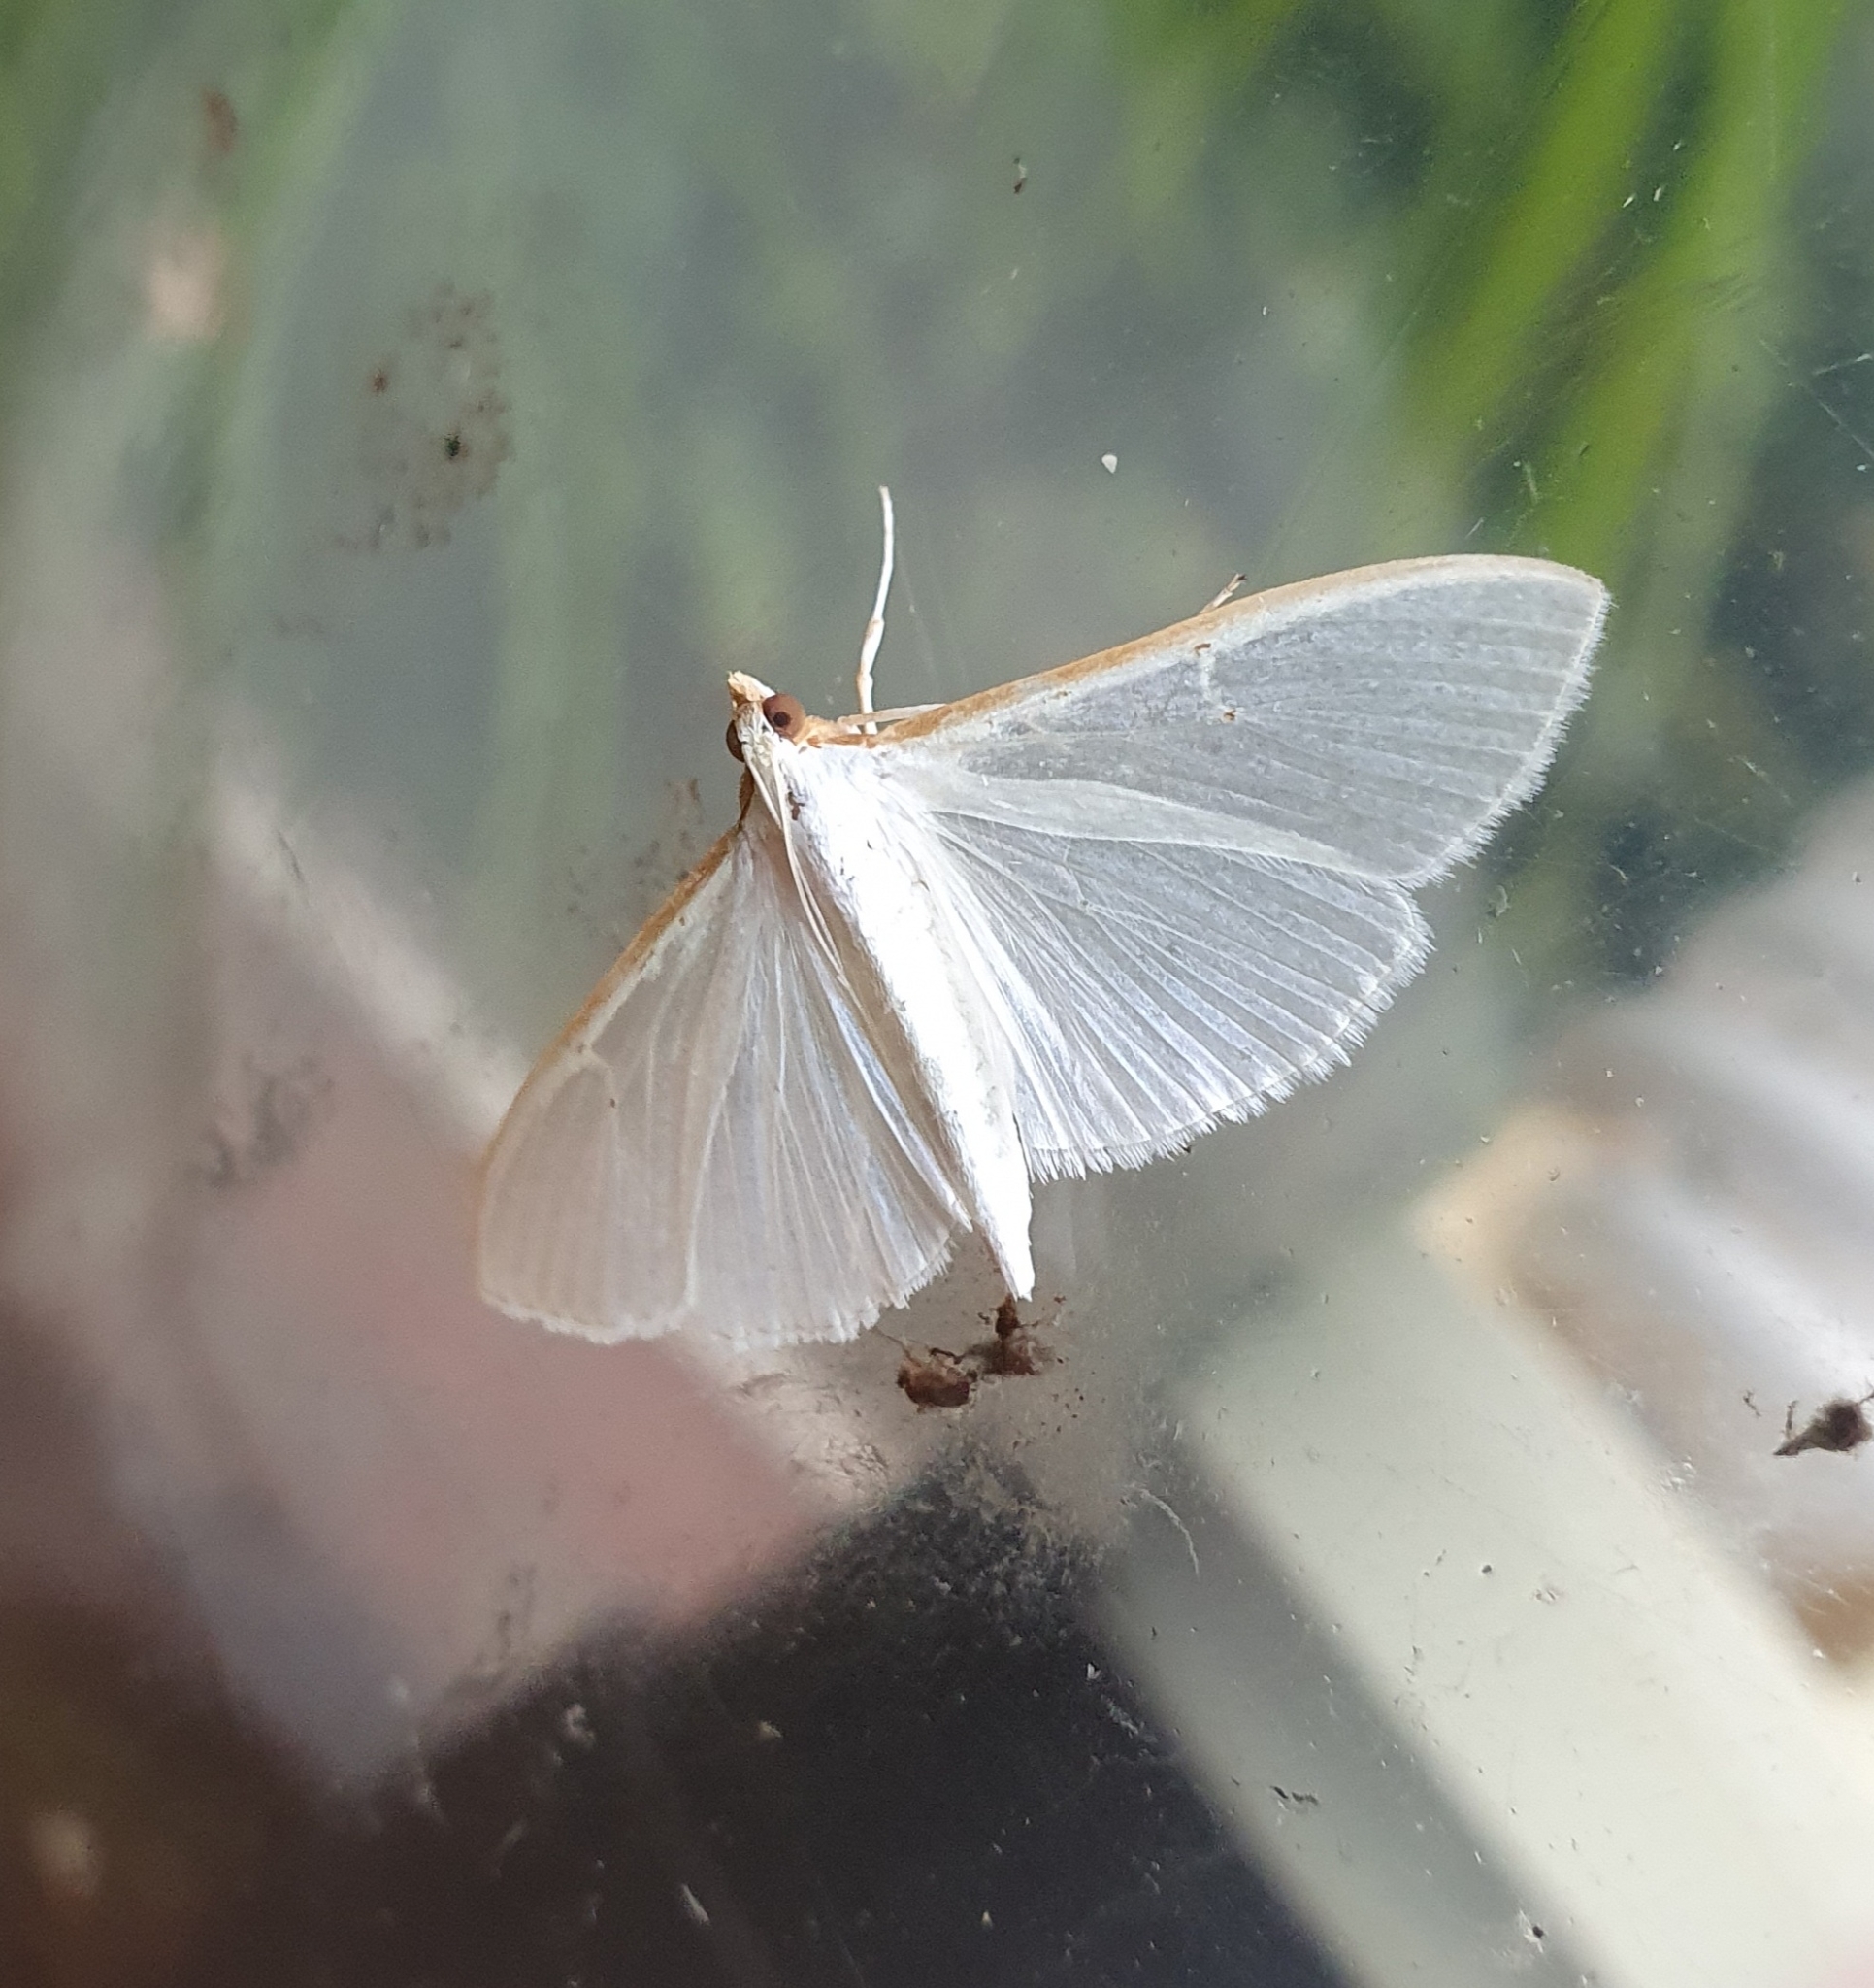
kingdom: Animalia
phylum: Arthropoda
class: Insecta
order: Lepidoptera
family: Crambidae
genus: Palpita
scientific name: Palpita vitrealis
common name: Olive-tree pearl
